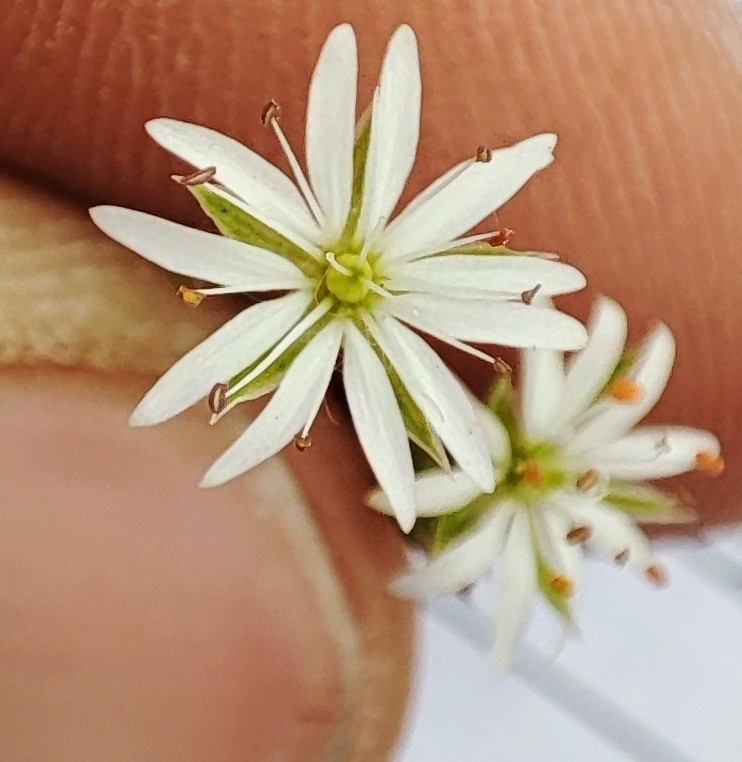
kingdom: Plantae
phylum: Tracheophyta
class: Magnoliopsida
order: Caryophyllales
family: Caryophyllaceae
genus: Stellaria
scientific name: Stellaria graminea
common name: Grass-like starwort
